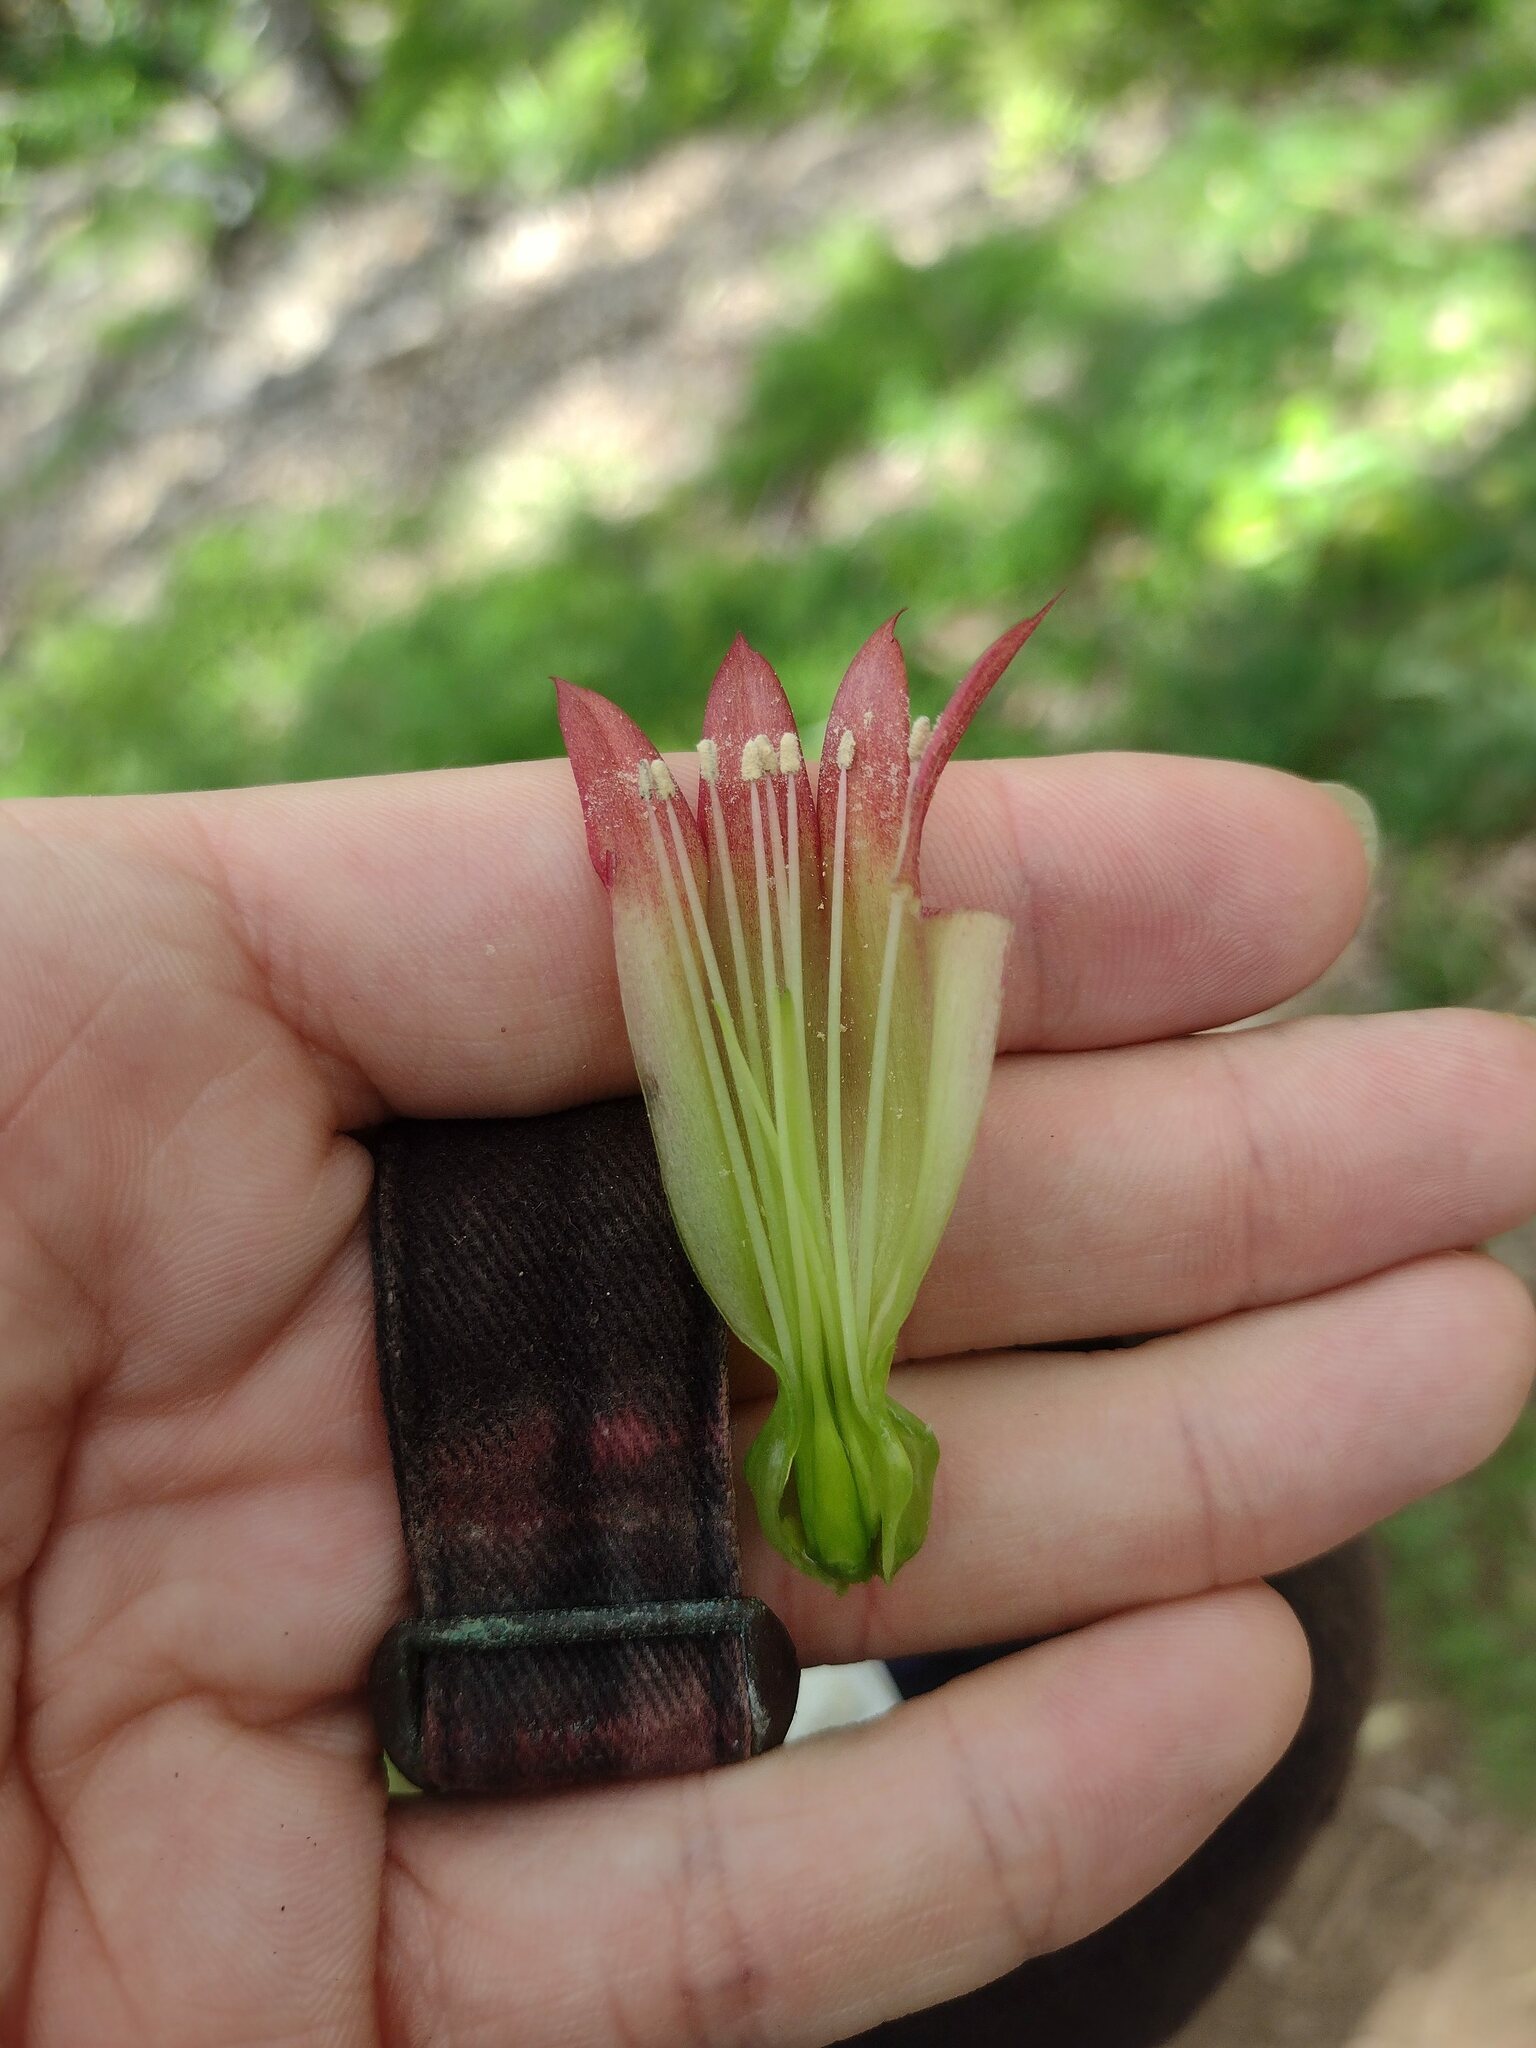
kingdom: Plantae
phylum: Tracheophyta
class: Magnoliopsida
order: Saxifragales
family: Crassulaceae
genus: Kalanchoe
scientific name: Kalanchoe pinnata
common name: Cathedral bells
